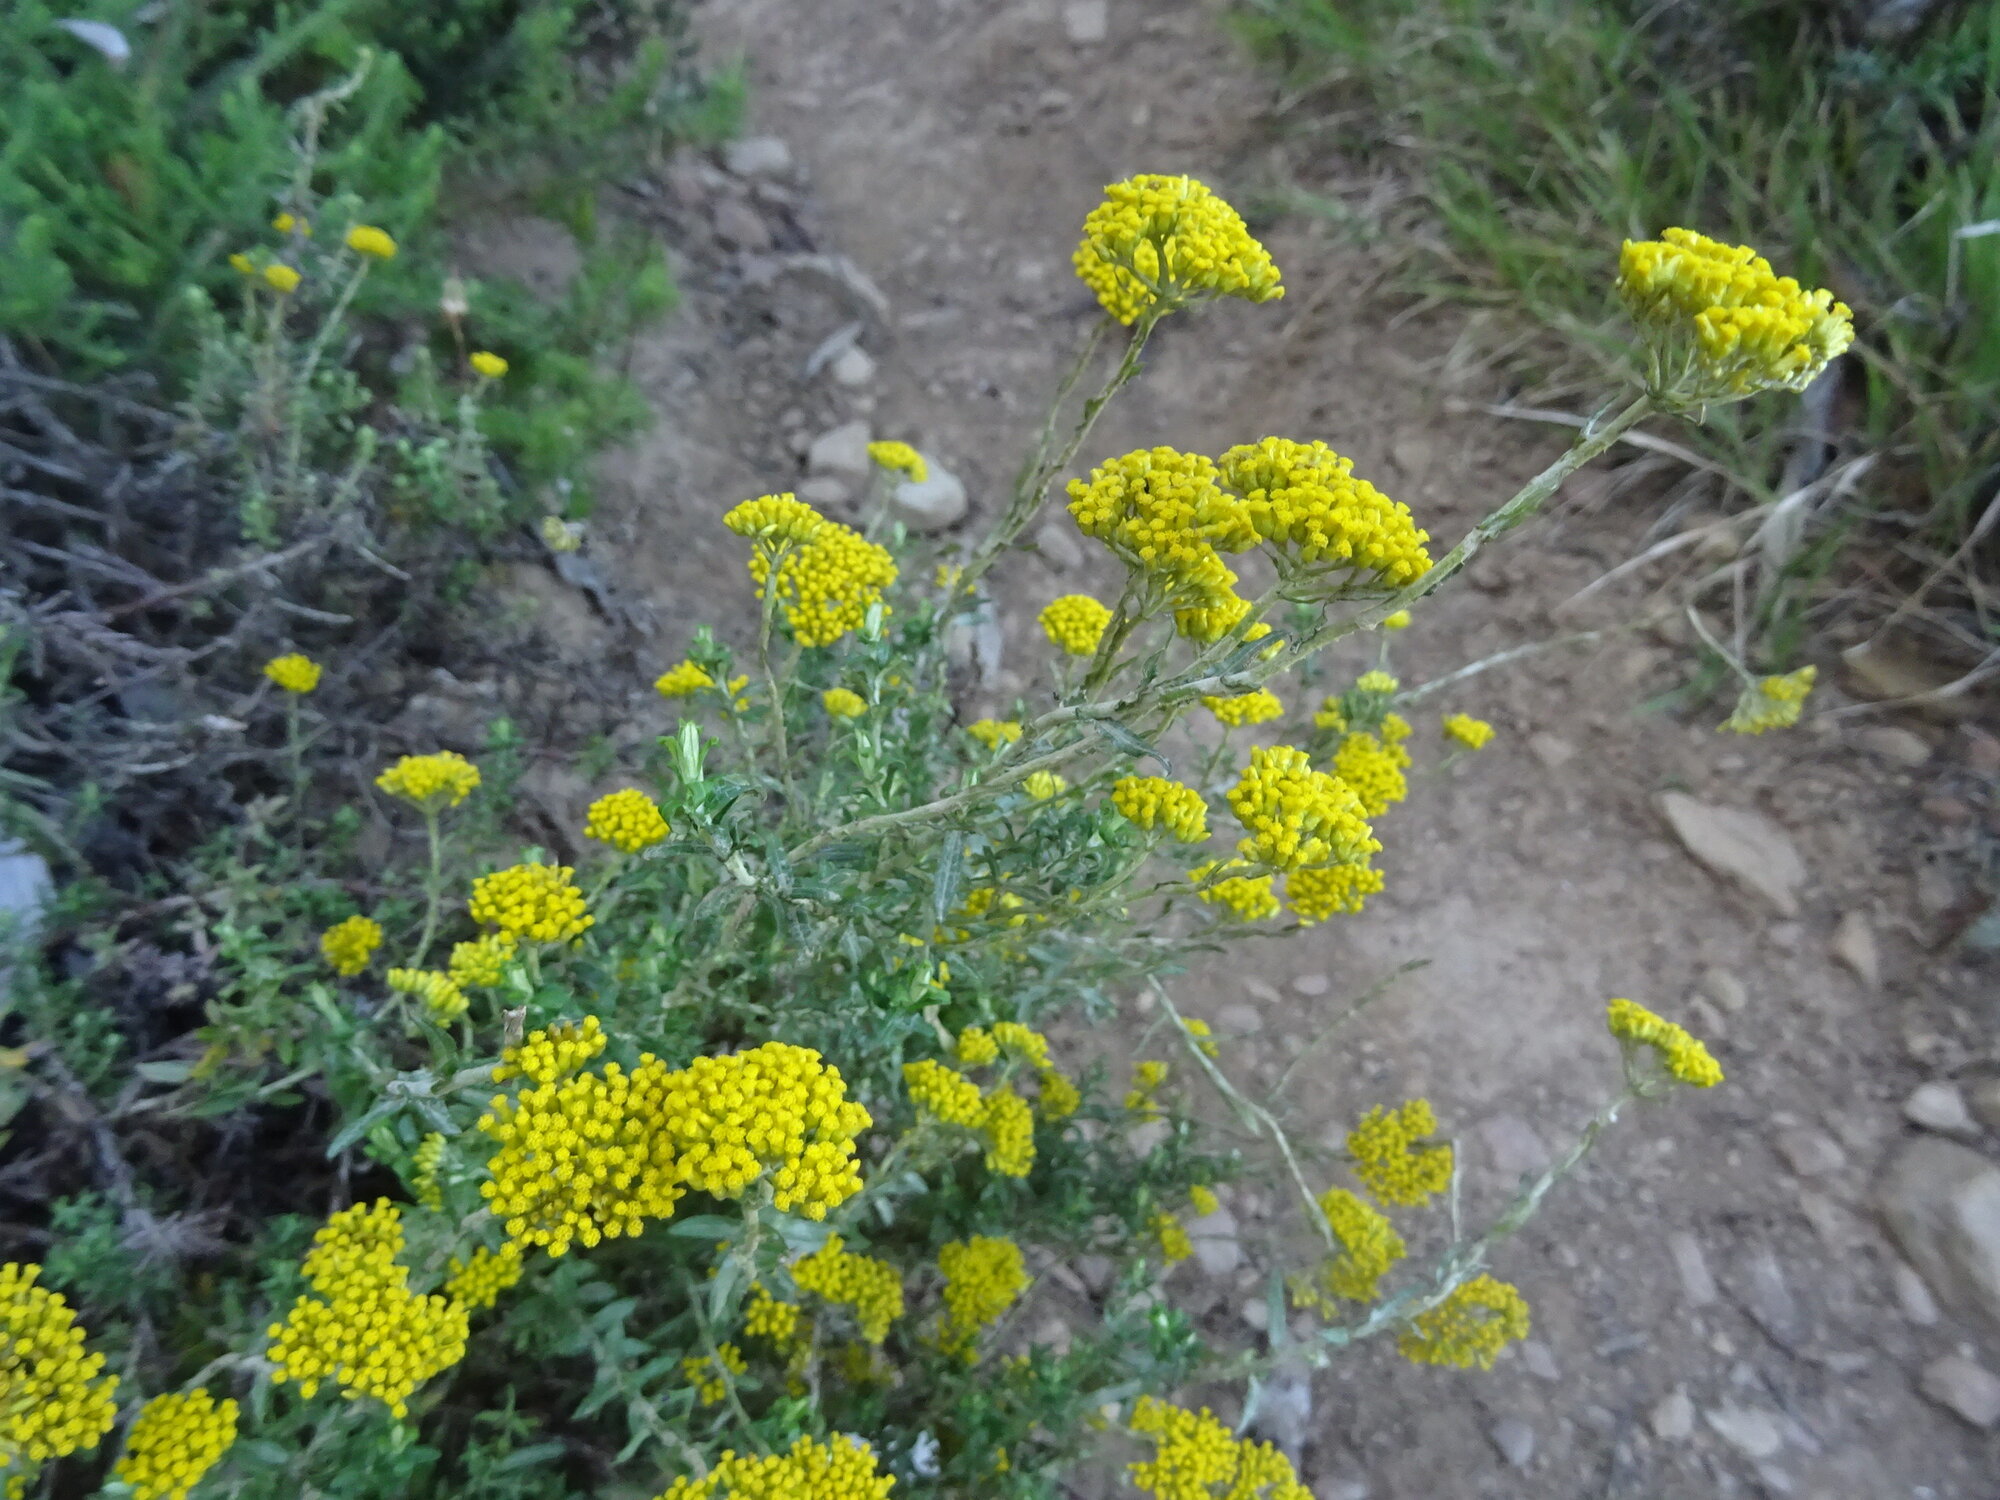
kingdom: Plantae
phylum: Tracheophyta
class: Magnoliopsida
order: Asterales
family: Asteraceae
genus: Helichrysum
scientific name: Helichrysum cymosum
